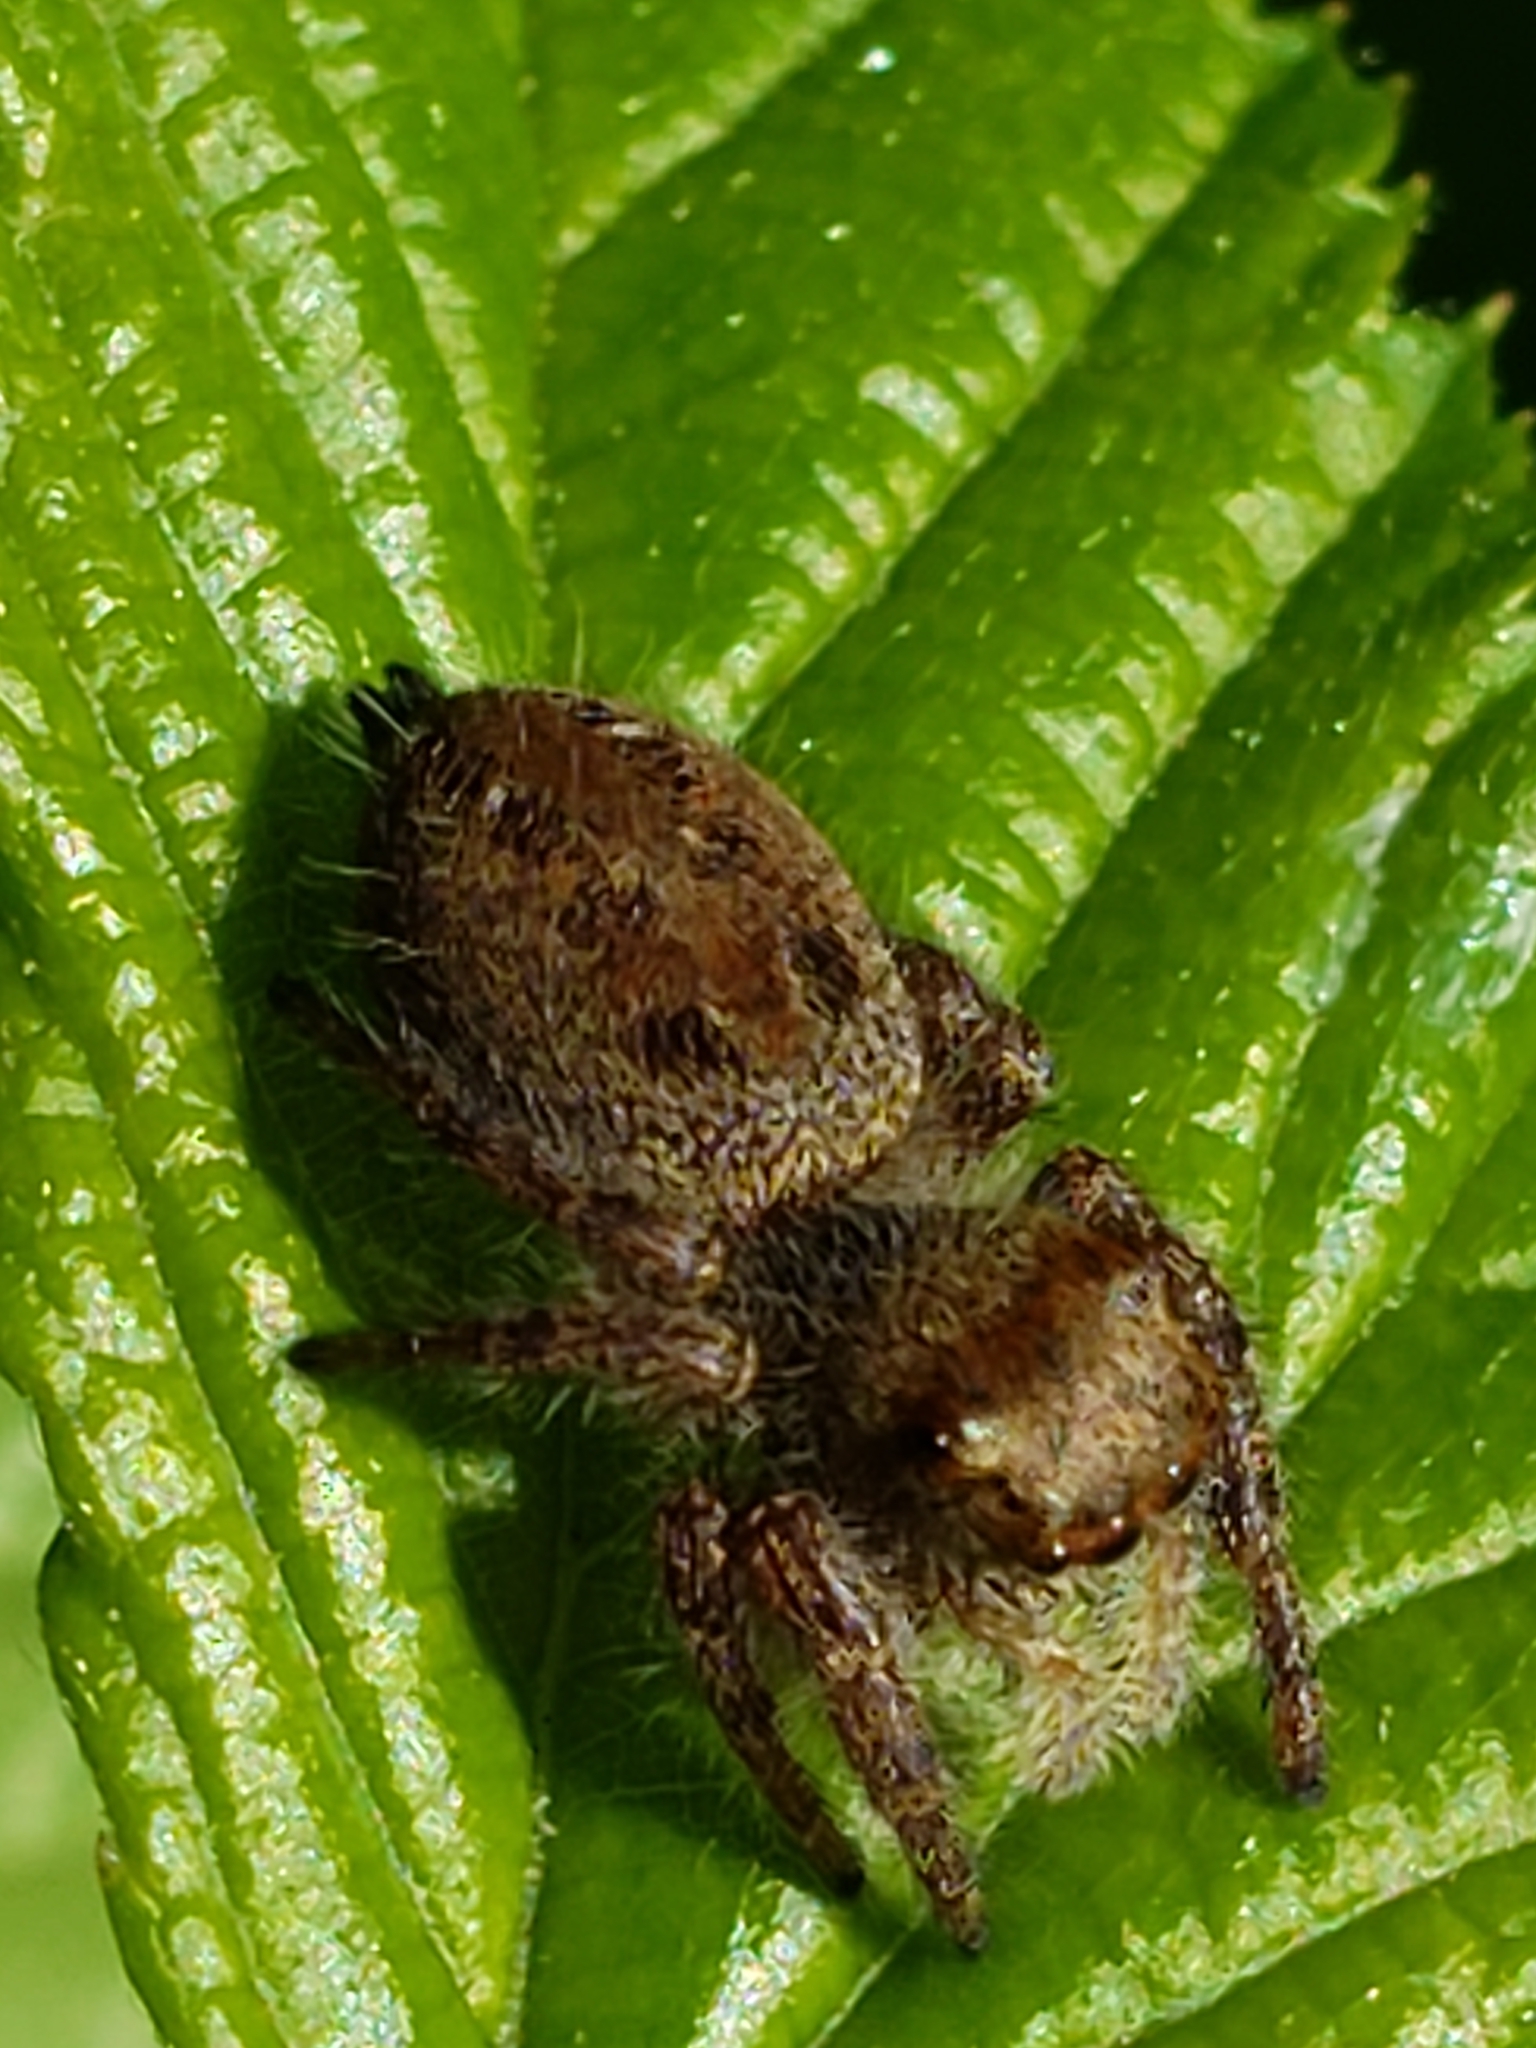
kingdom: Animalia
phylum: Arthropoda
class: Arachnida
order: Araneae
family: Salticidae
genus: Phidippus
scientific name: Phidippus princeps
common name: Grayish jumping spider
